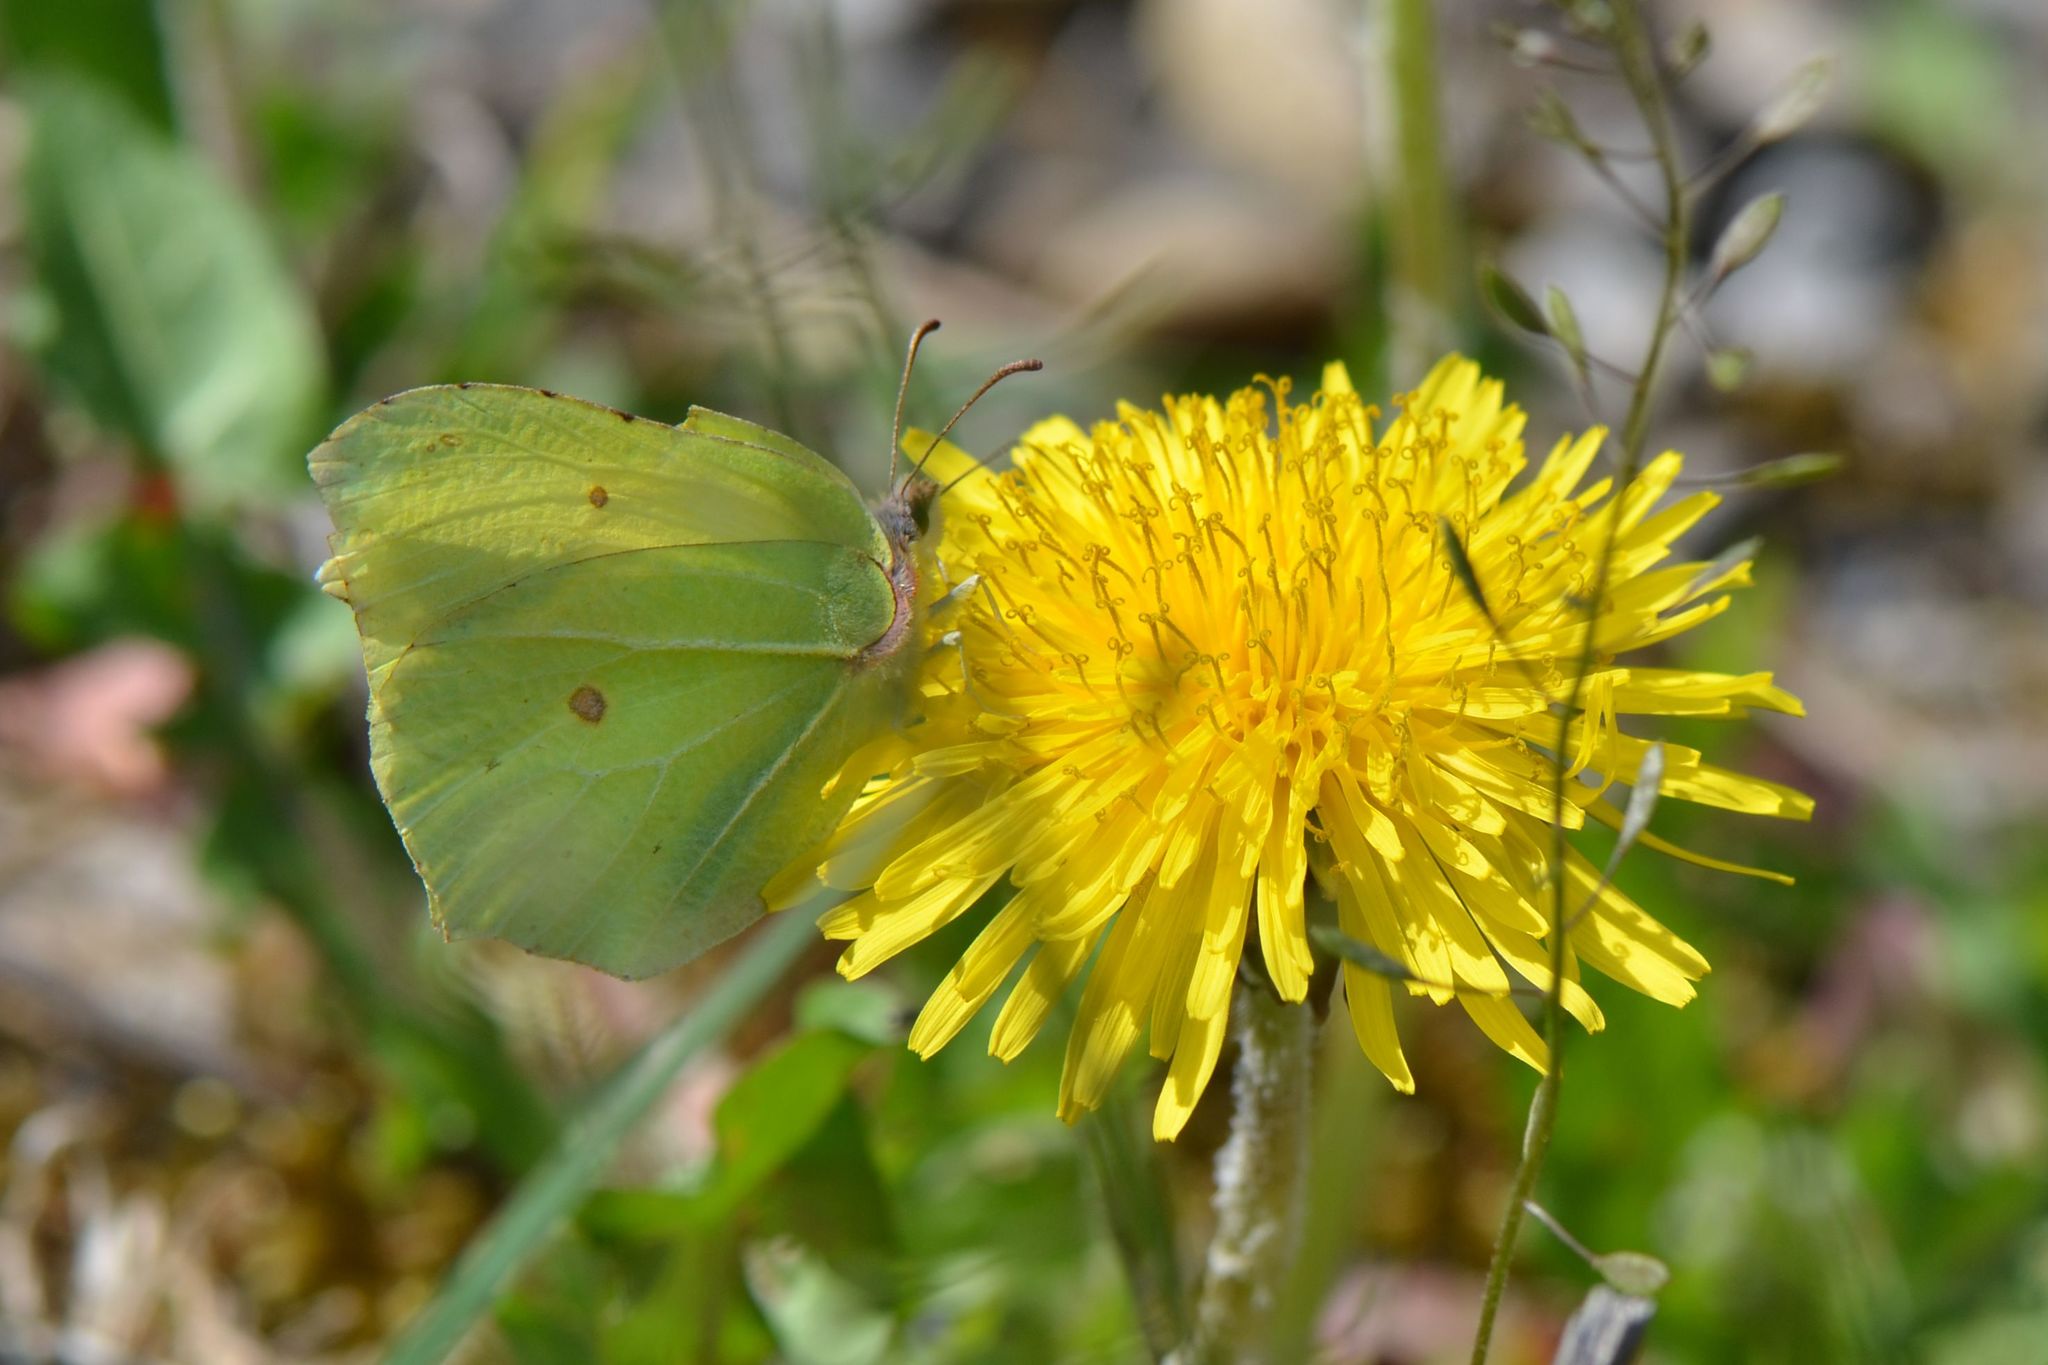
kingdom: Animalia
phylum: Arthropoda
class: Insecta
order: Lepidoptera
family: Pieridae
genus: Gonepteryx
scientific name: Gonepteryx rhamni
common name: Brimstone
